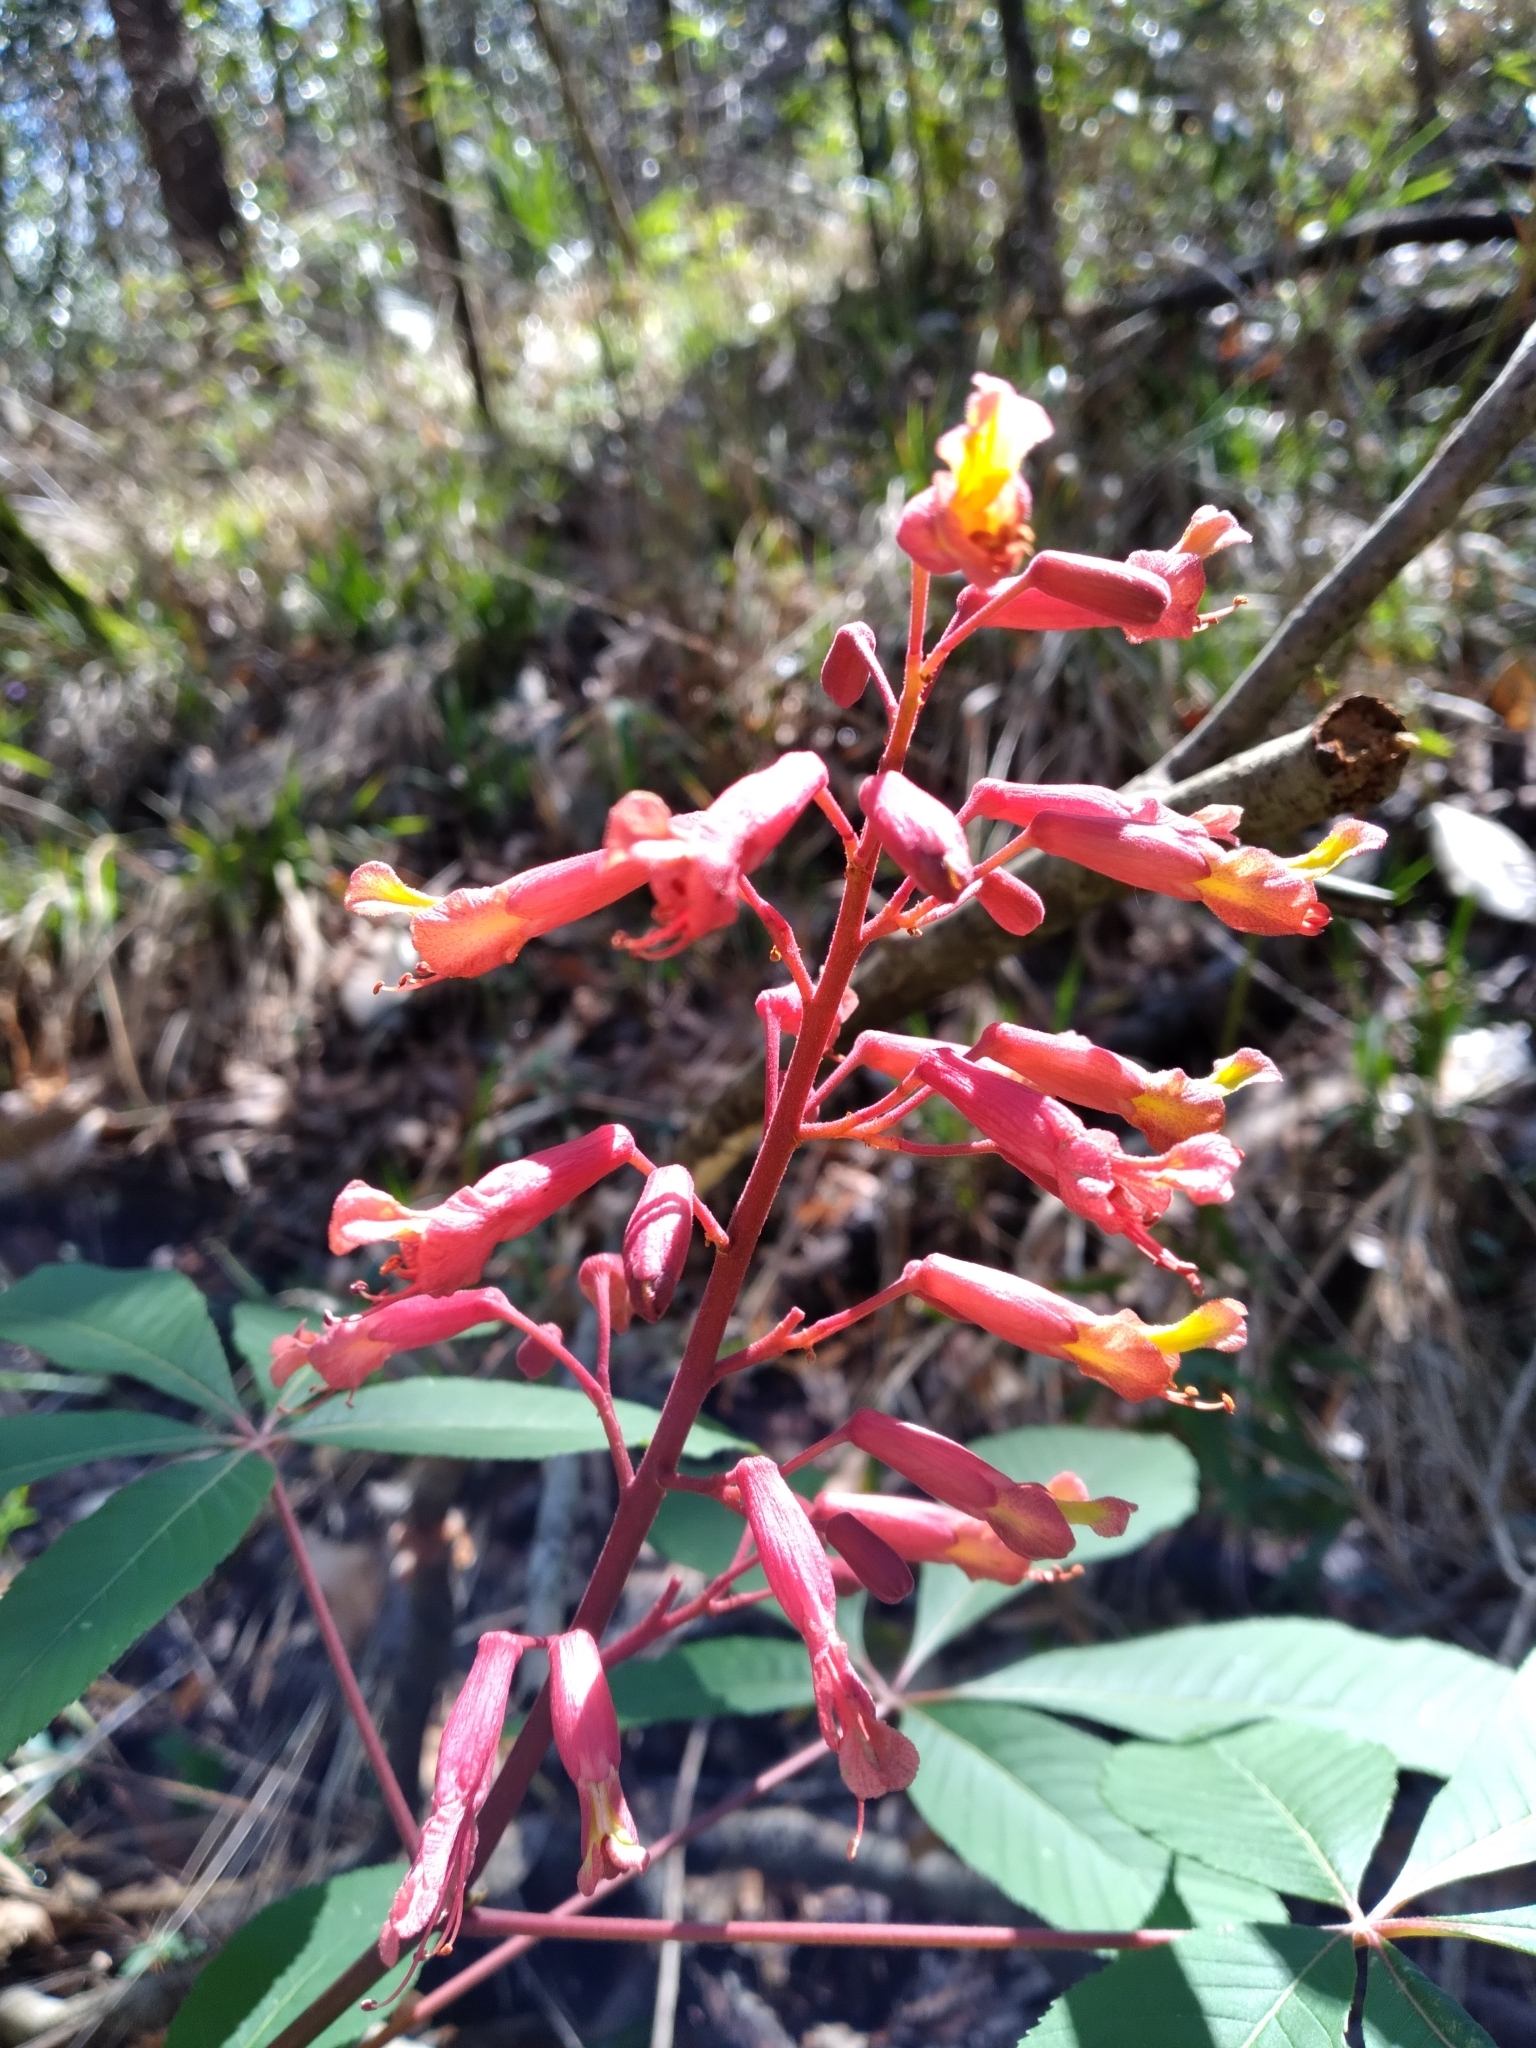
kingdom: Plantae
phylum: Tracheophyta
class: Magnoliopsida
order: Sapindales
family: Sapindaceae
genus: Aesculus
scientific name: Aesculus pavia
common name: Red buckeye
